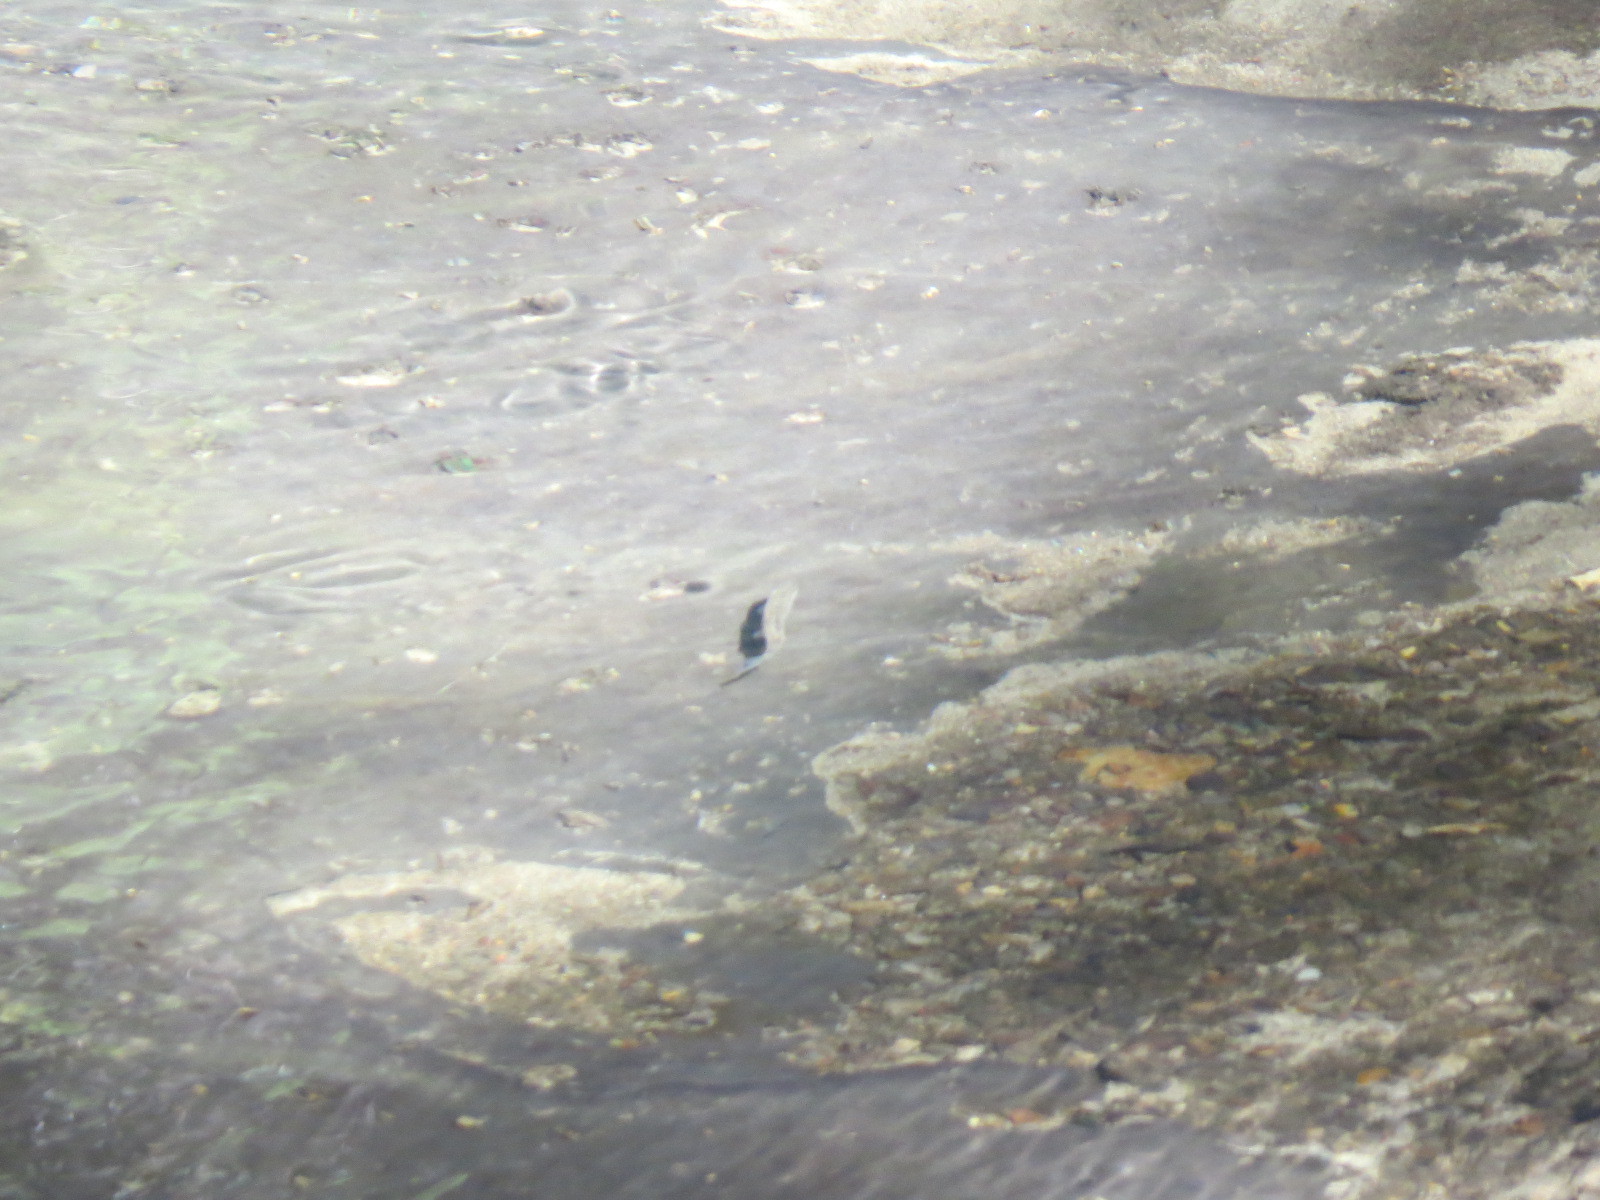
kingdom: Animalia
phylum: Chordata
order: Salmoniformes
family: Salmonidae
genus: Oncorhynchus
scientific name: Oncorhynchus mykiss
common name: Rainbow trout
